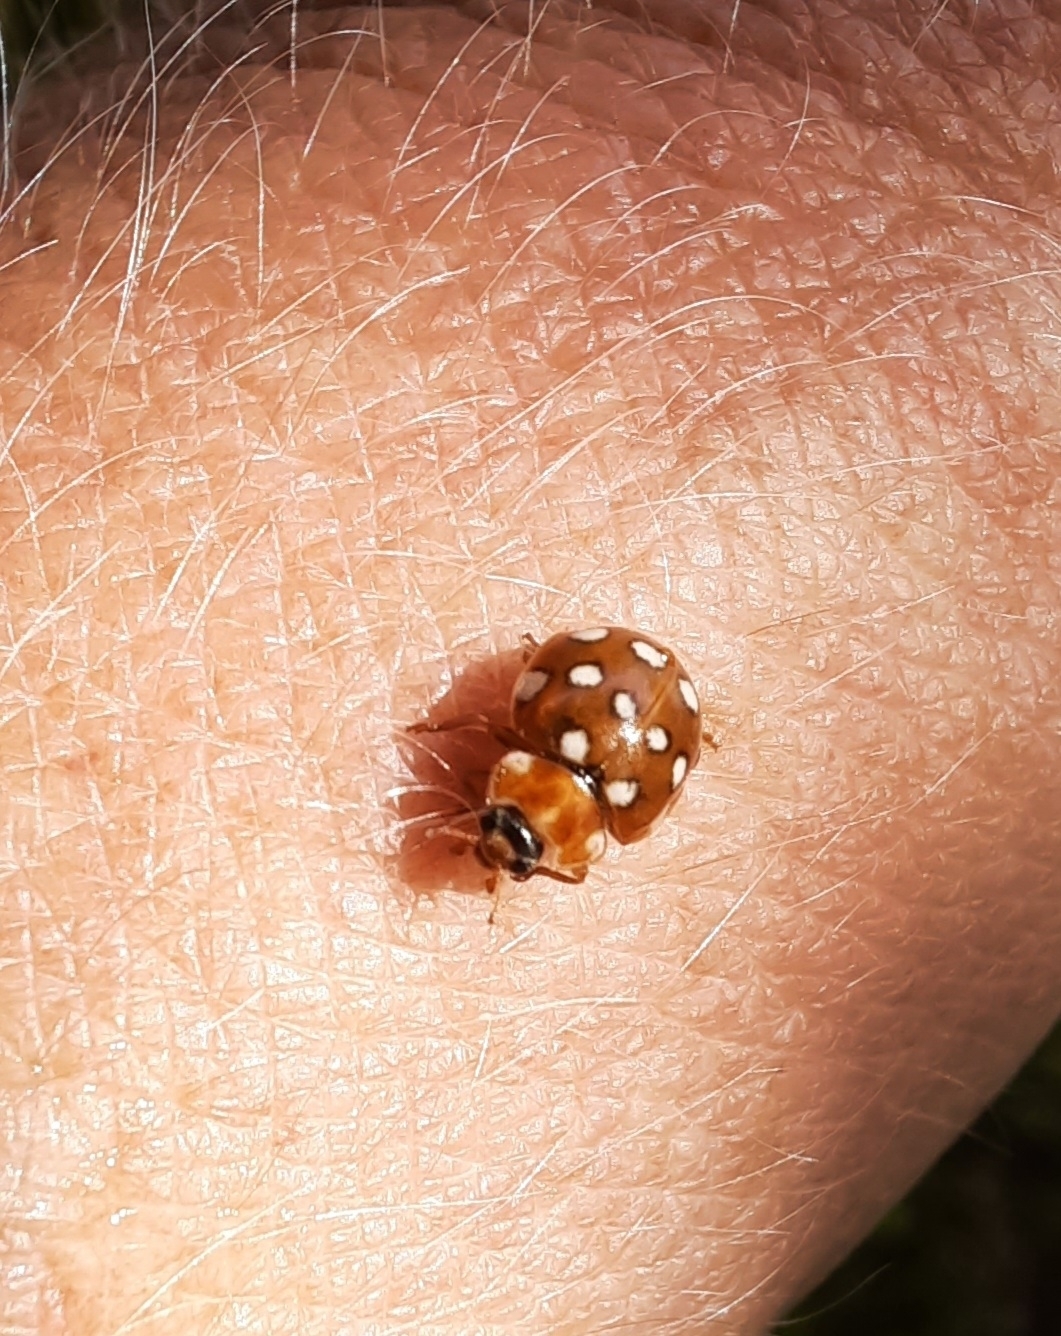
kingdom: Animalia
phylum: Arthropoda
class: Insecta
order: Coleoptera
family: Coccinellidae
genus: Calvia
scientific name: Calvia quatuordecimguttata
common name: Cream-spot ladybird
